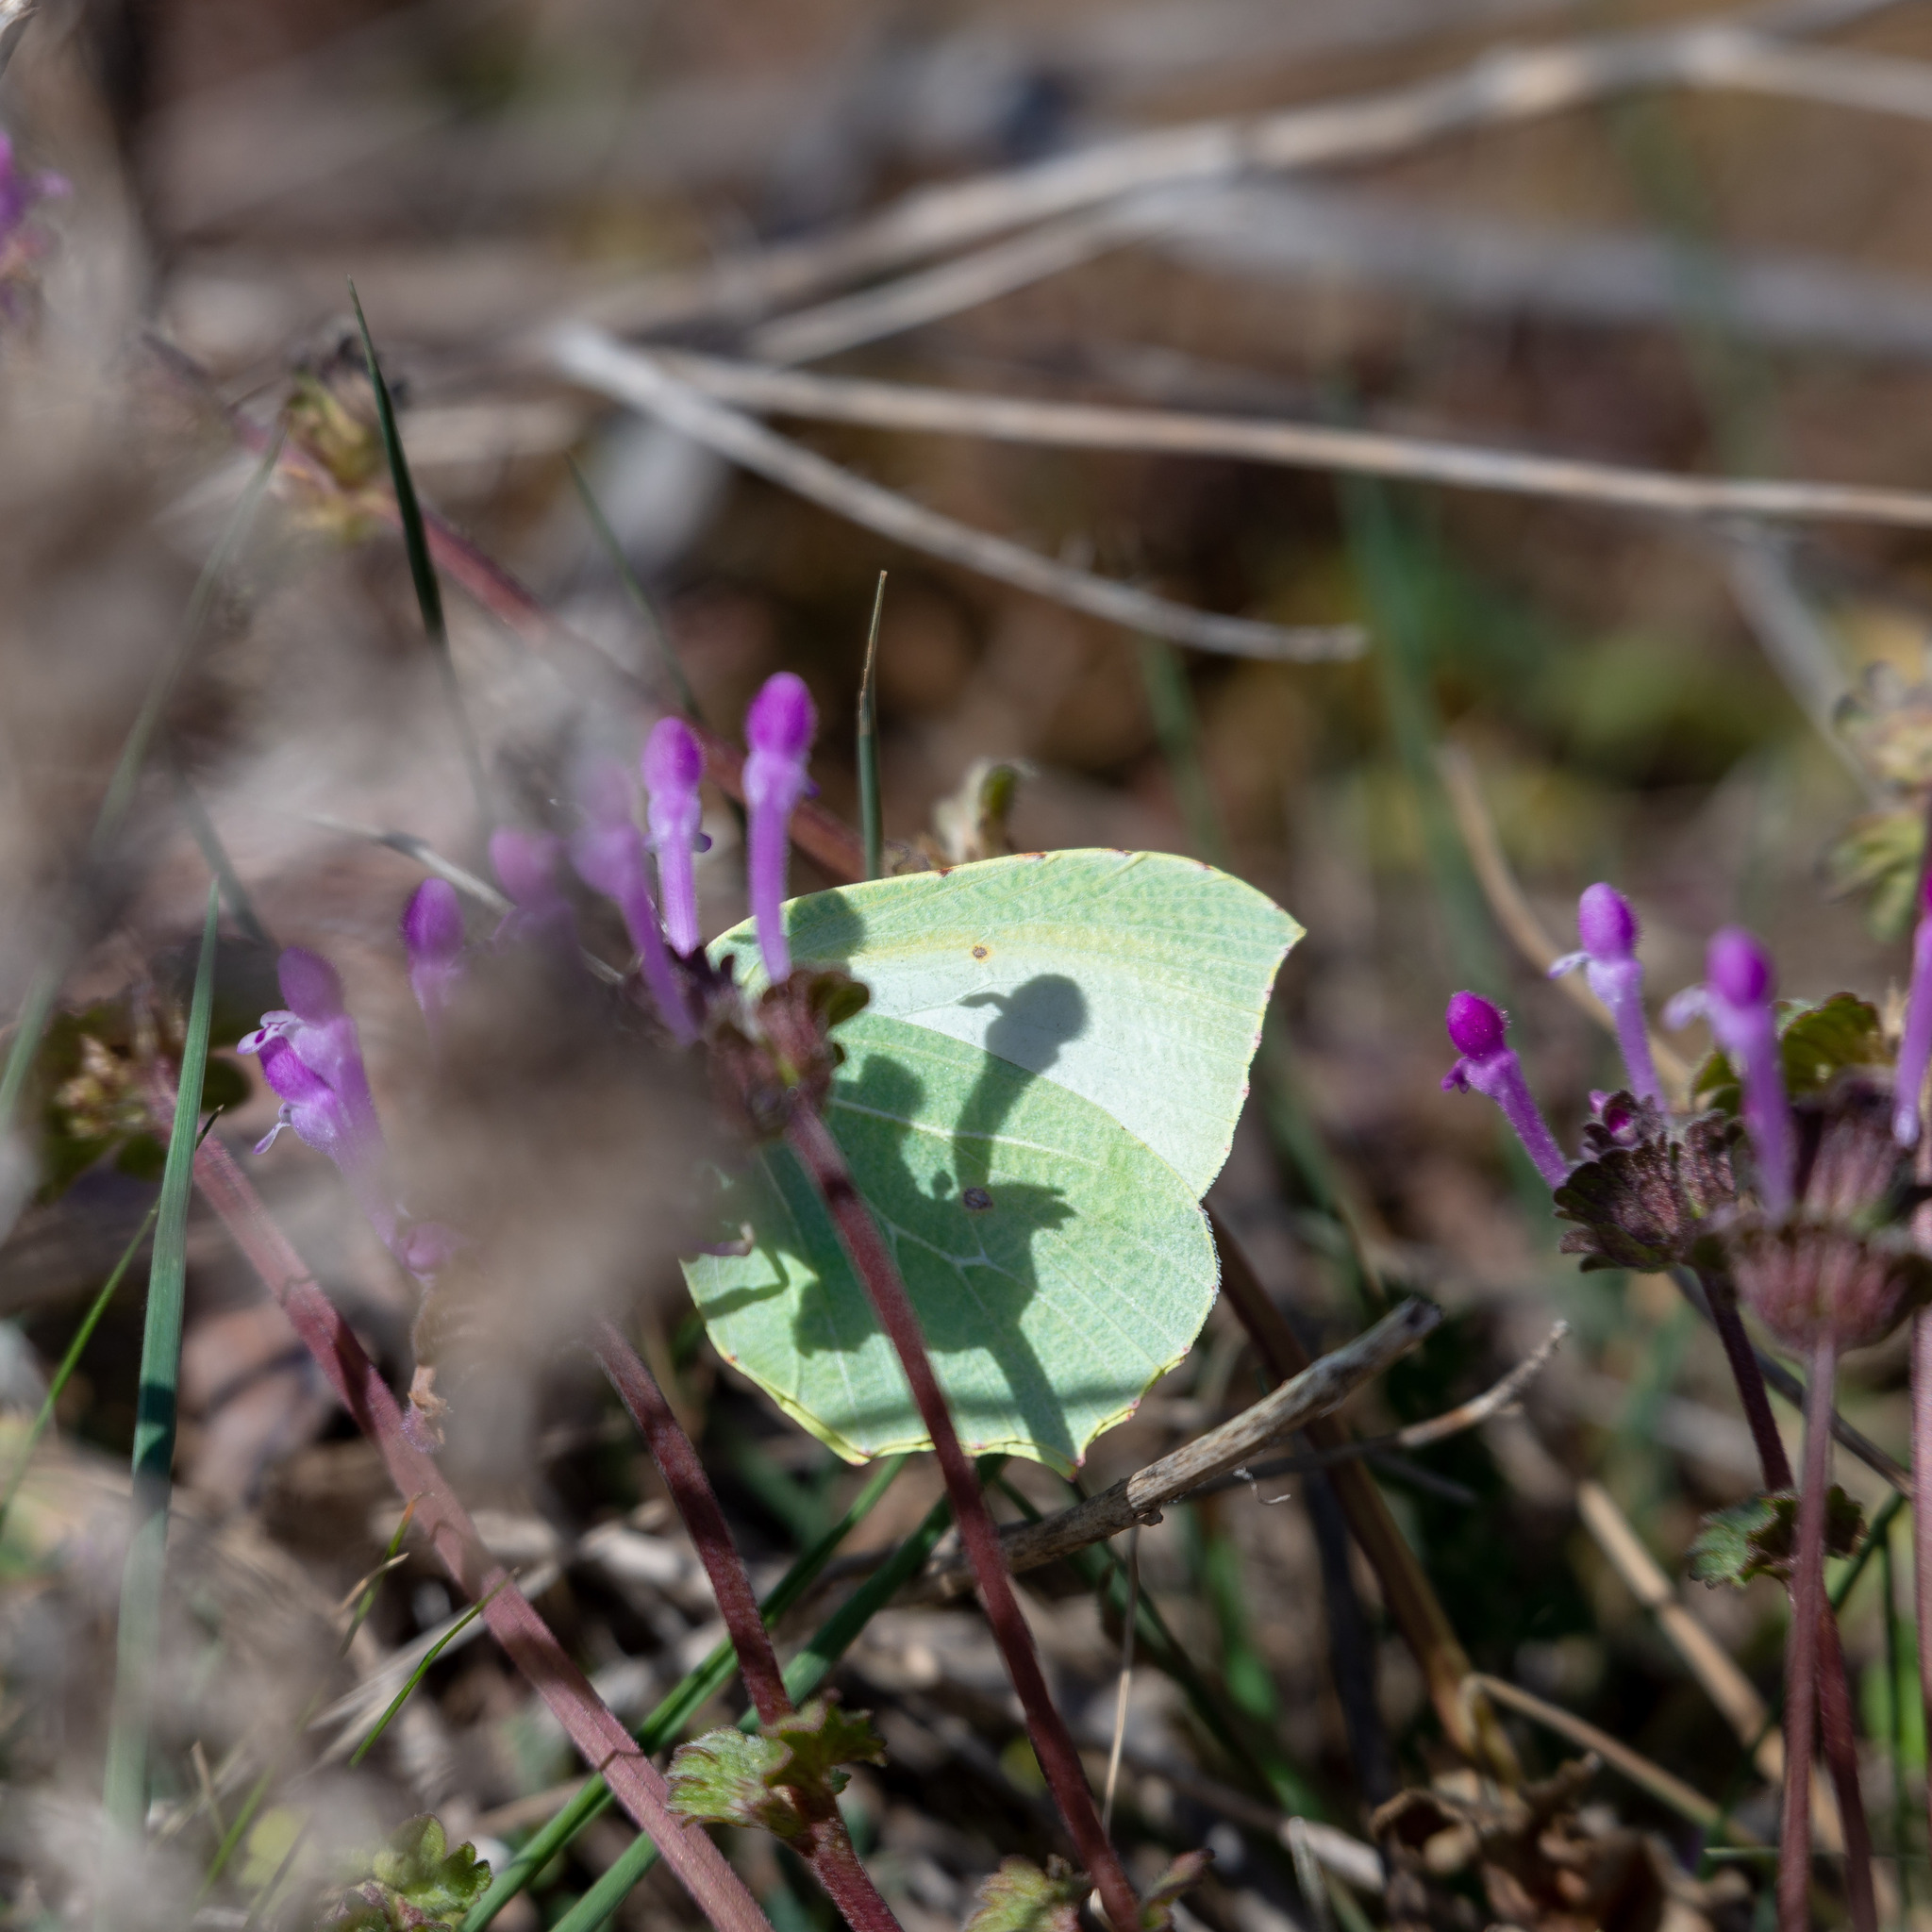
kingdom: Animalia
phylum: Arthropoda
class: Insecta
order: Lepidoptera
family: Pieridae
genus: Gonepteryx
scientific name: Gonepteryx cleopatra
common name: Cleopatra
